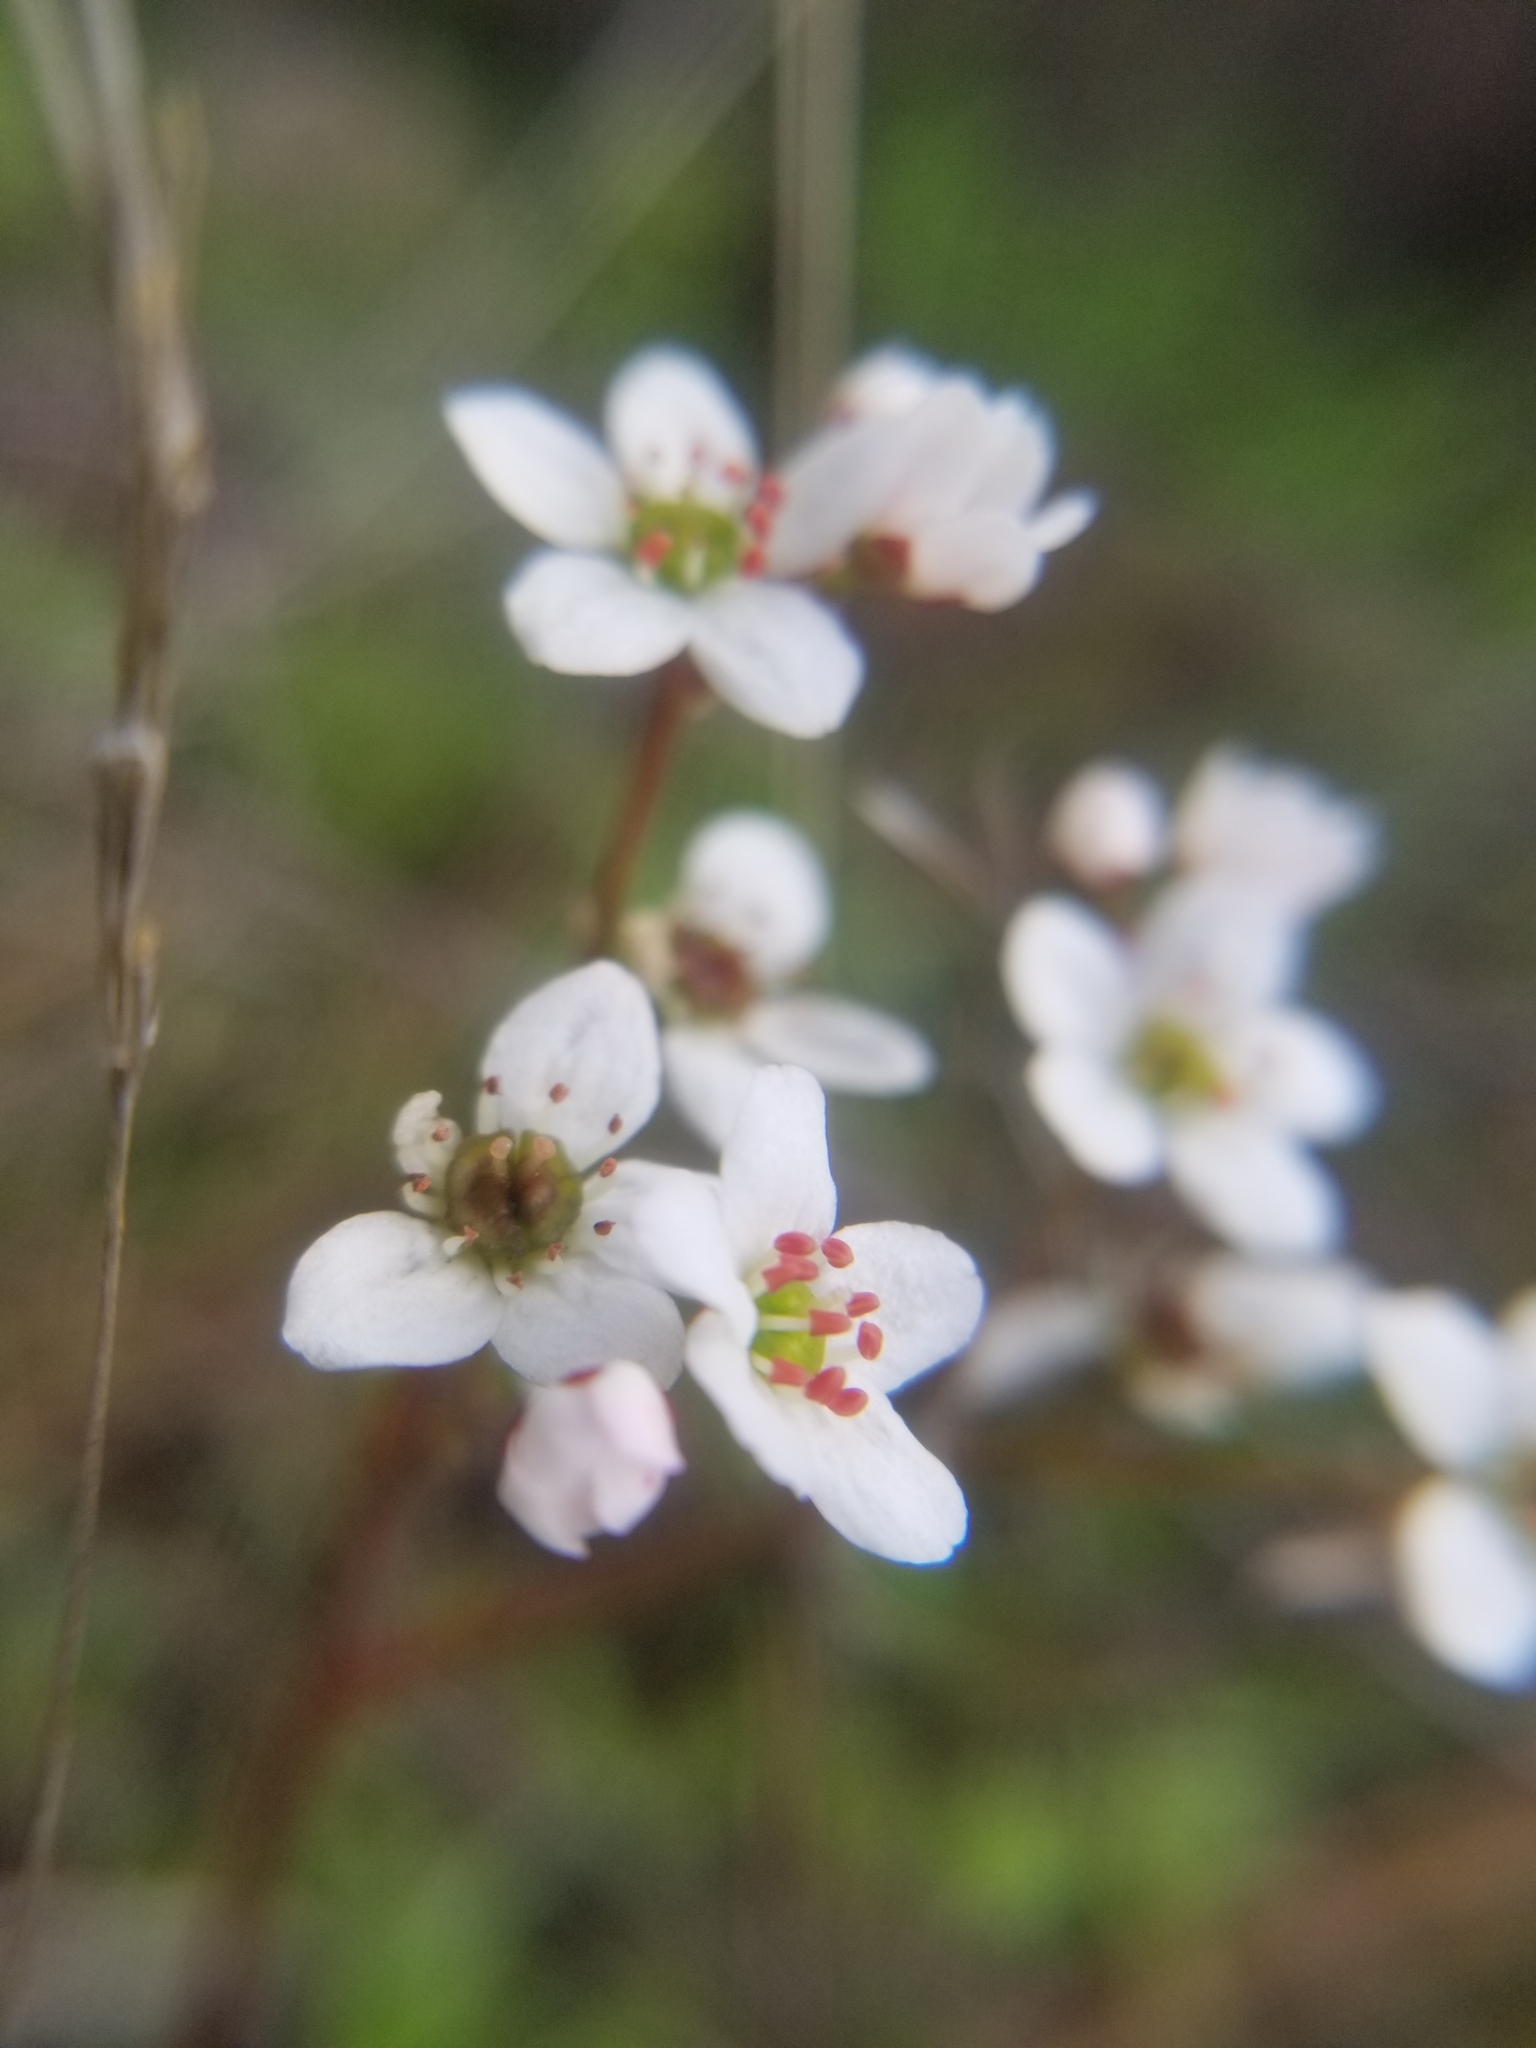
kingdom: Plantae
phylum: Tracheophyta
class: Magnoliopsida
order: Saxifragales
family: Saxifragaceae
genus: Micranthes
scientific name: Micranthes californica
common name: California saxifrage
